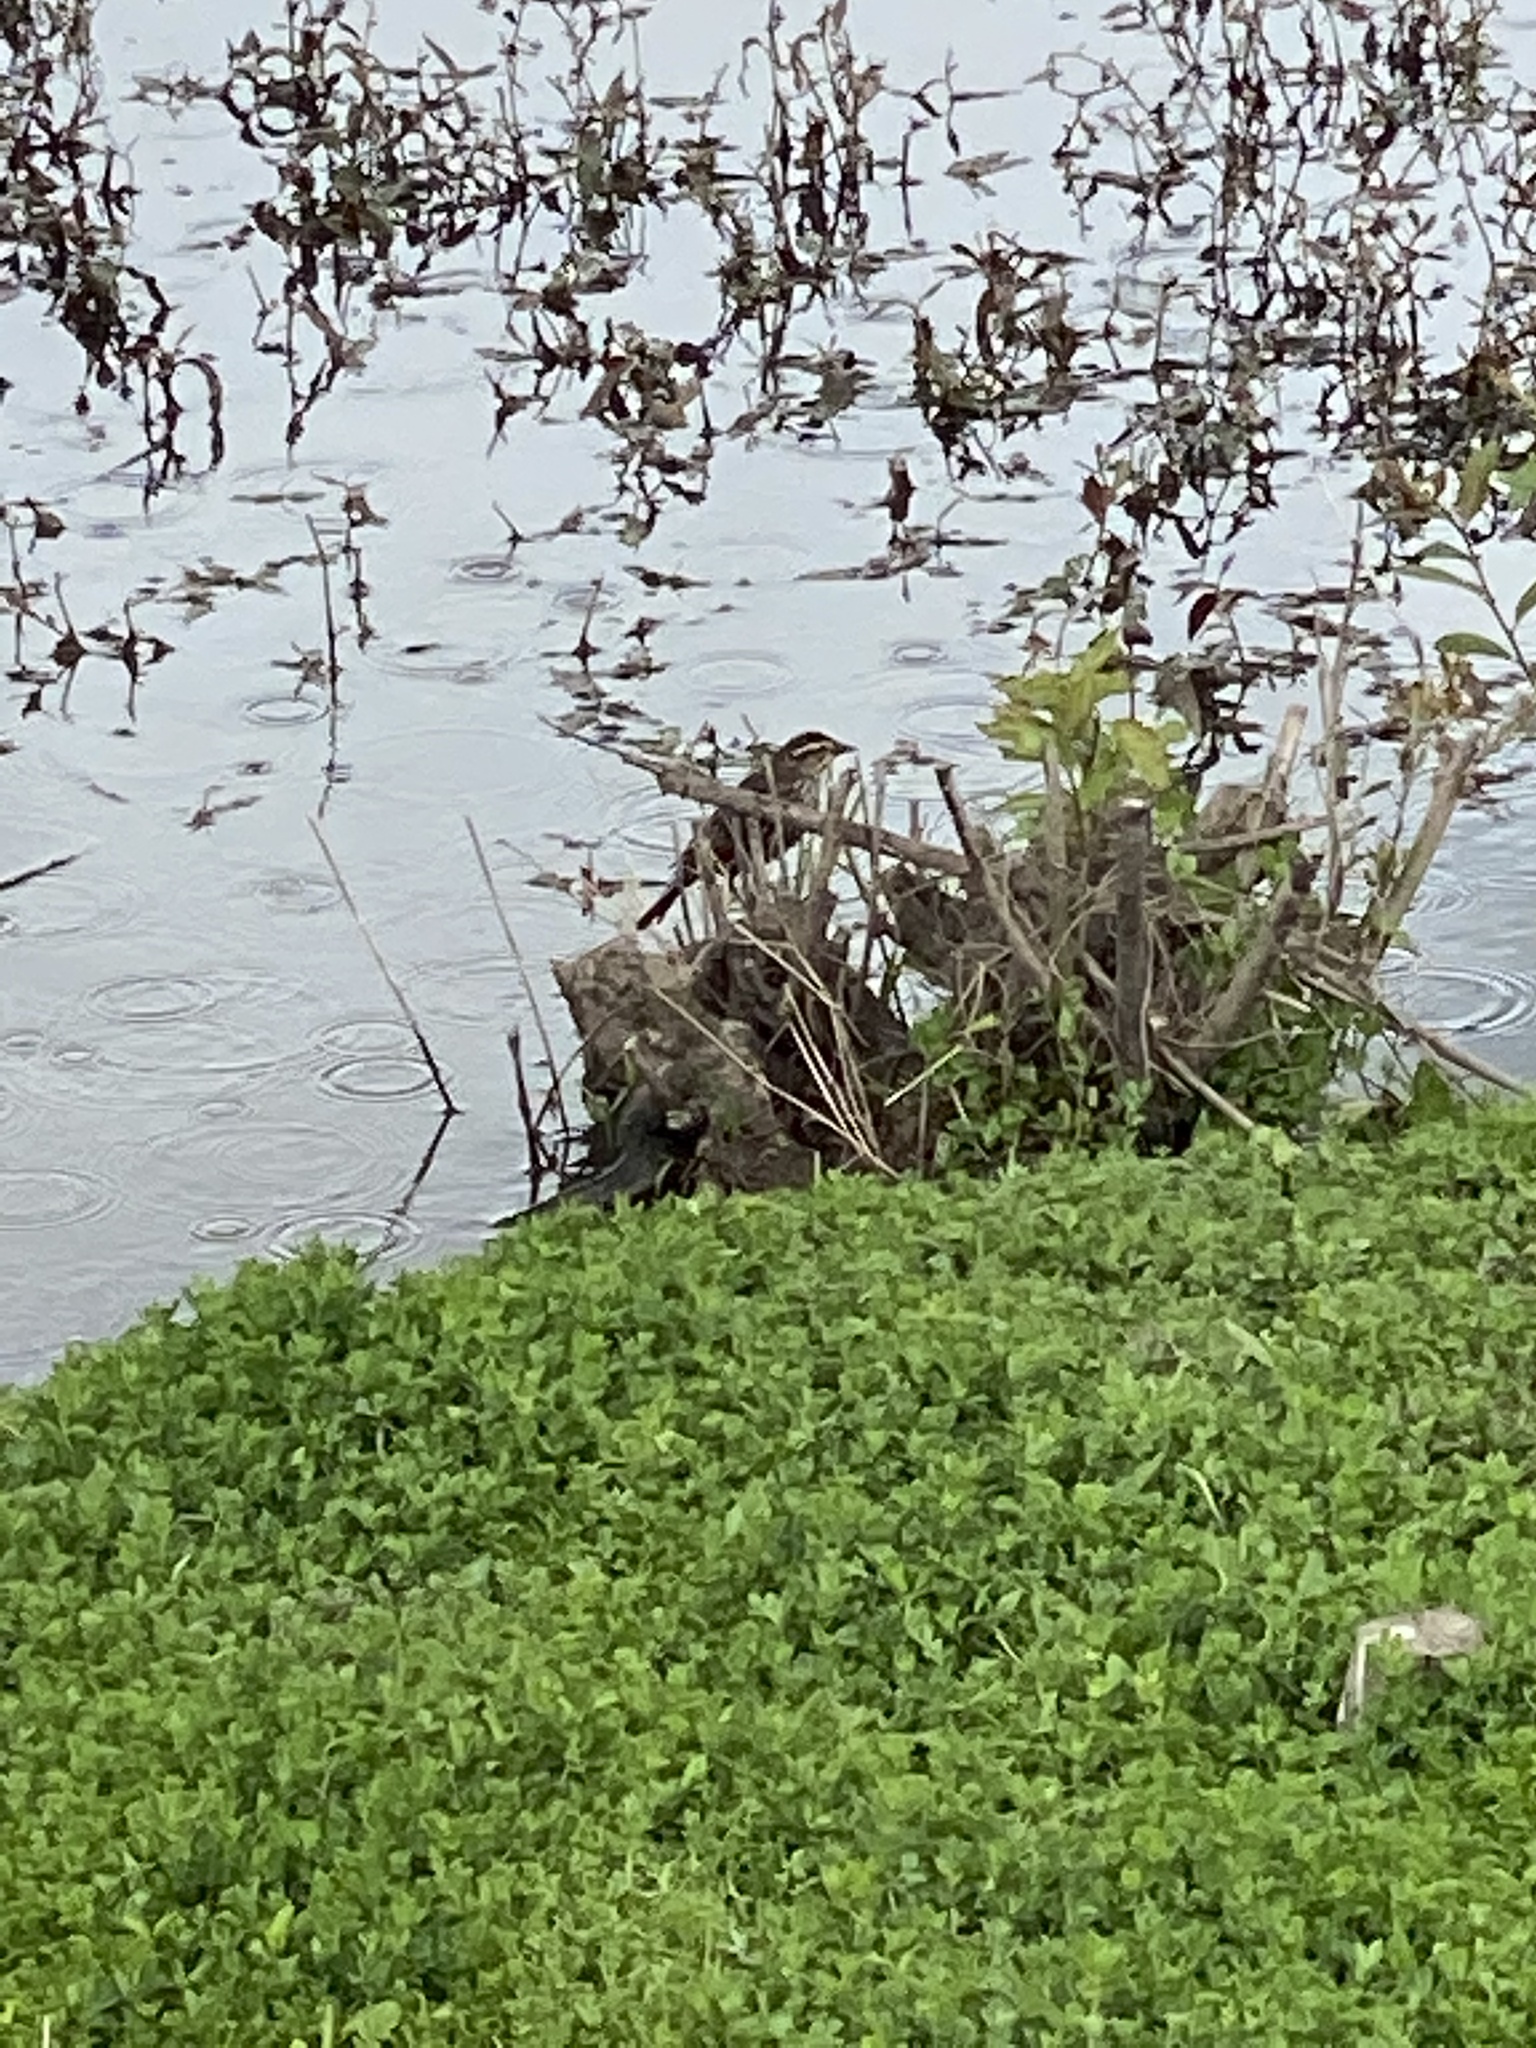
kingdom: Animalia
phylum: Chordata
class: Aves
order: Passeriformes
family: Icteridae
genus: Agelaius
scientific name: Agelaius phoeniceus
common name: Red-winged blackbird
